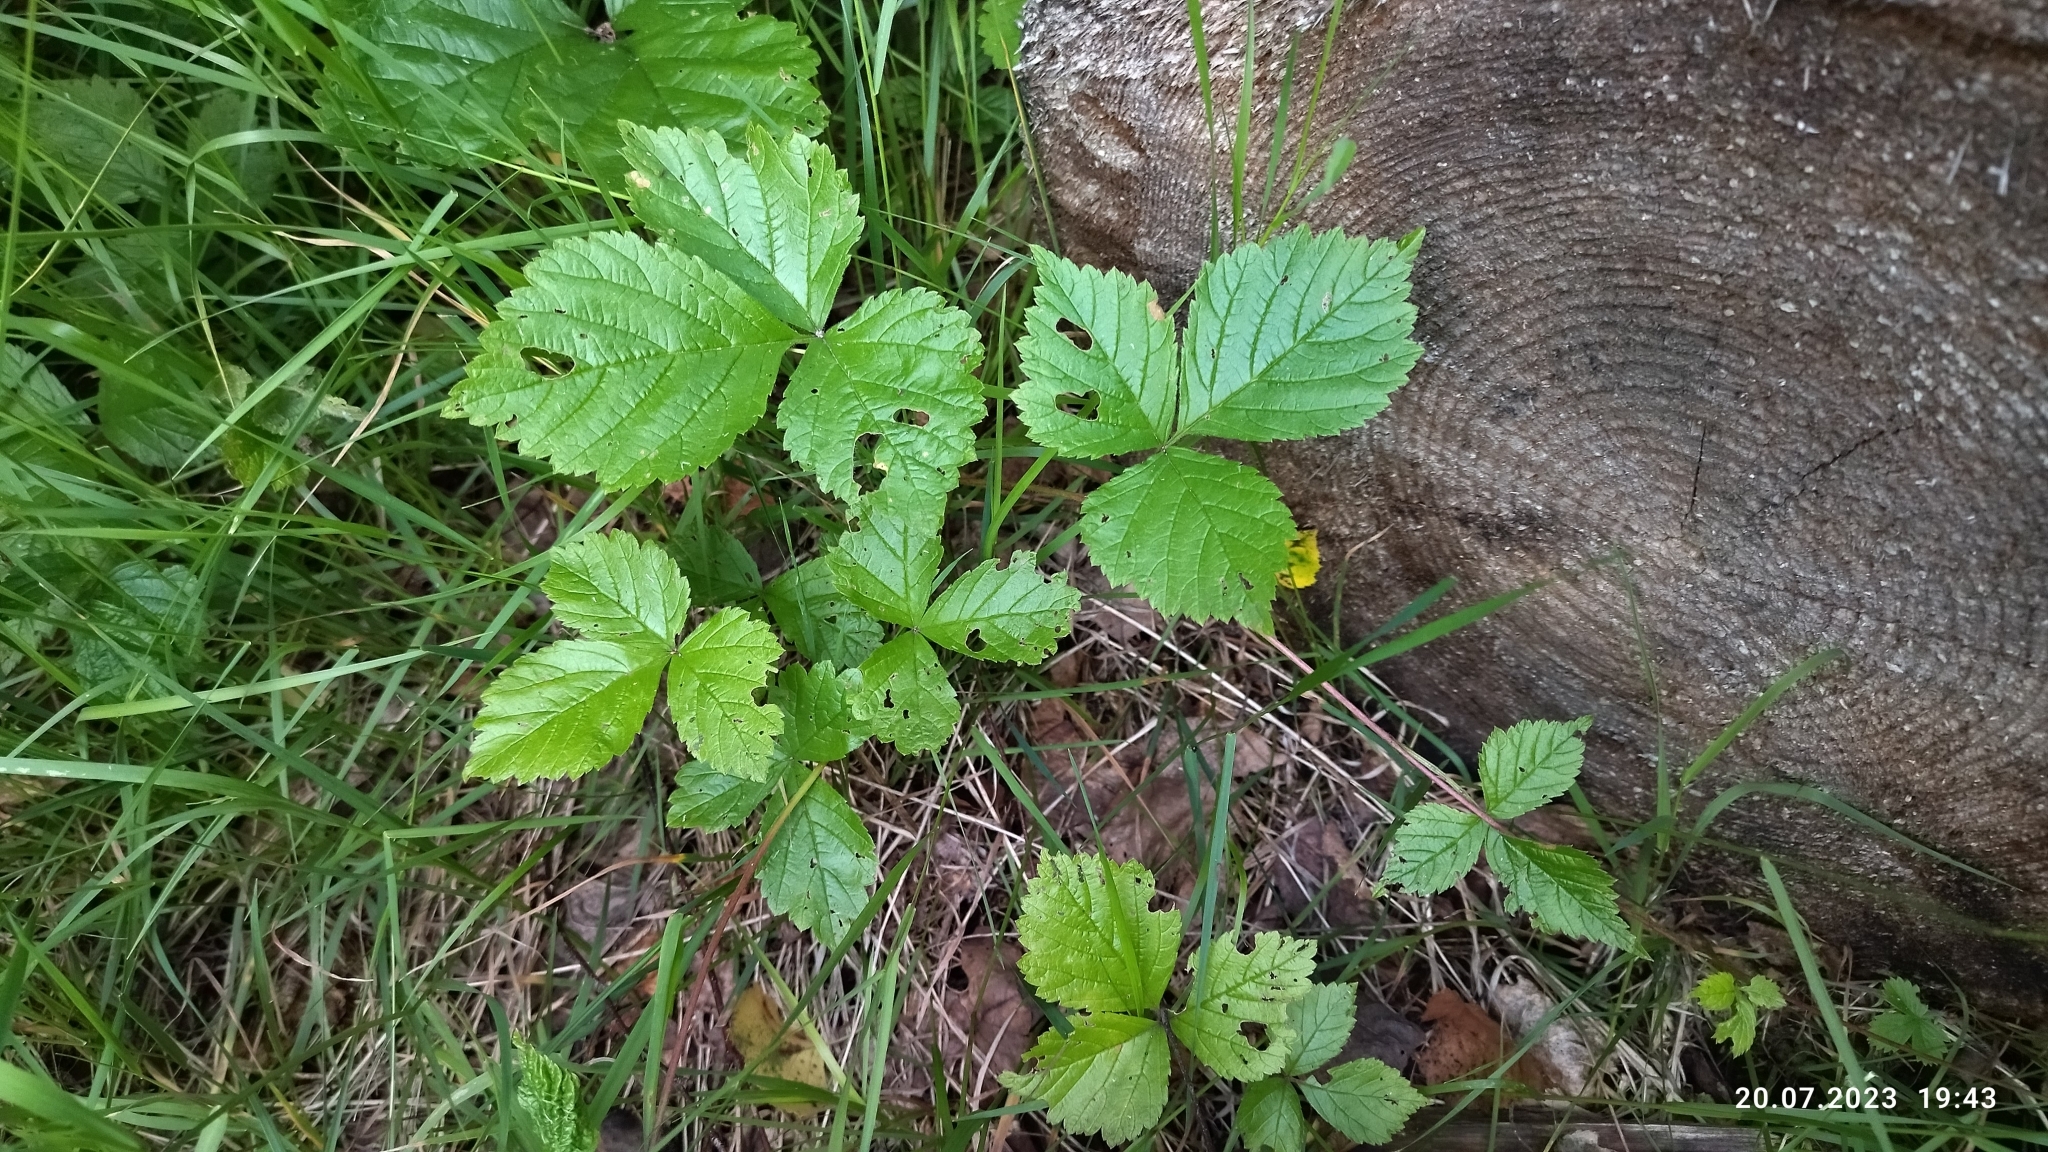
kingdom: Plantae
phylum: Tracheophyta
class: Magnoliopsida
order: Rosales
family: Rosaceae
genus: Rubus
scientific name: Rubus saxatilis
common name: Stone bramble
